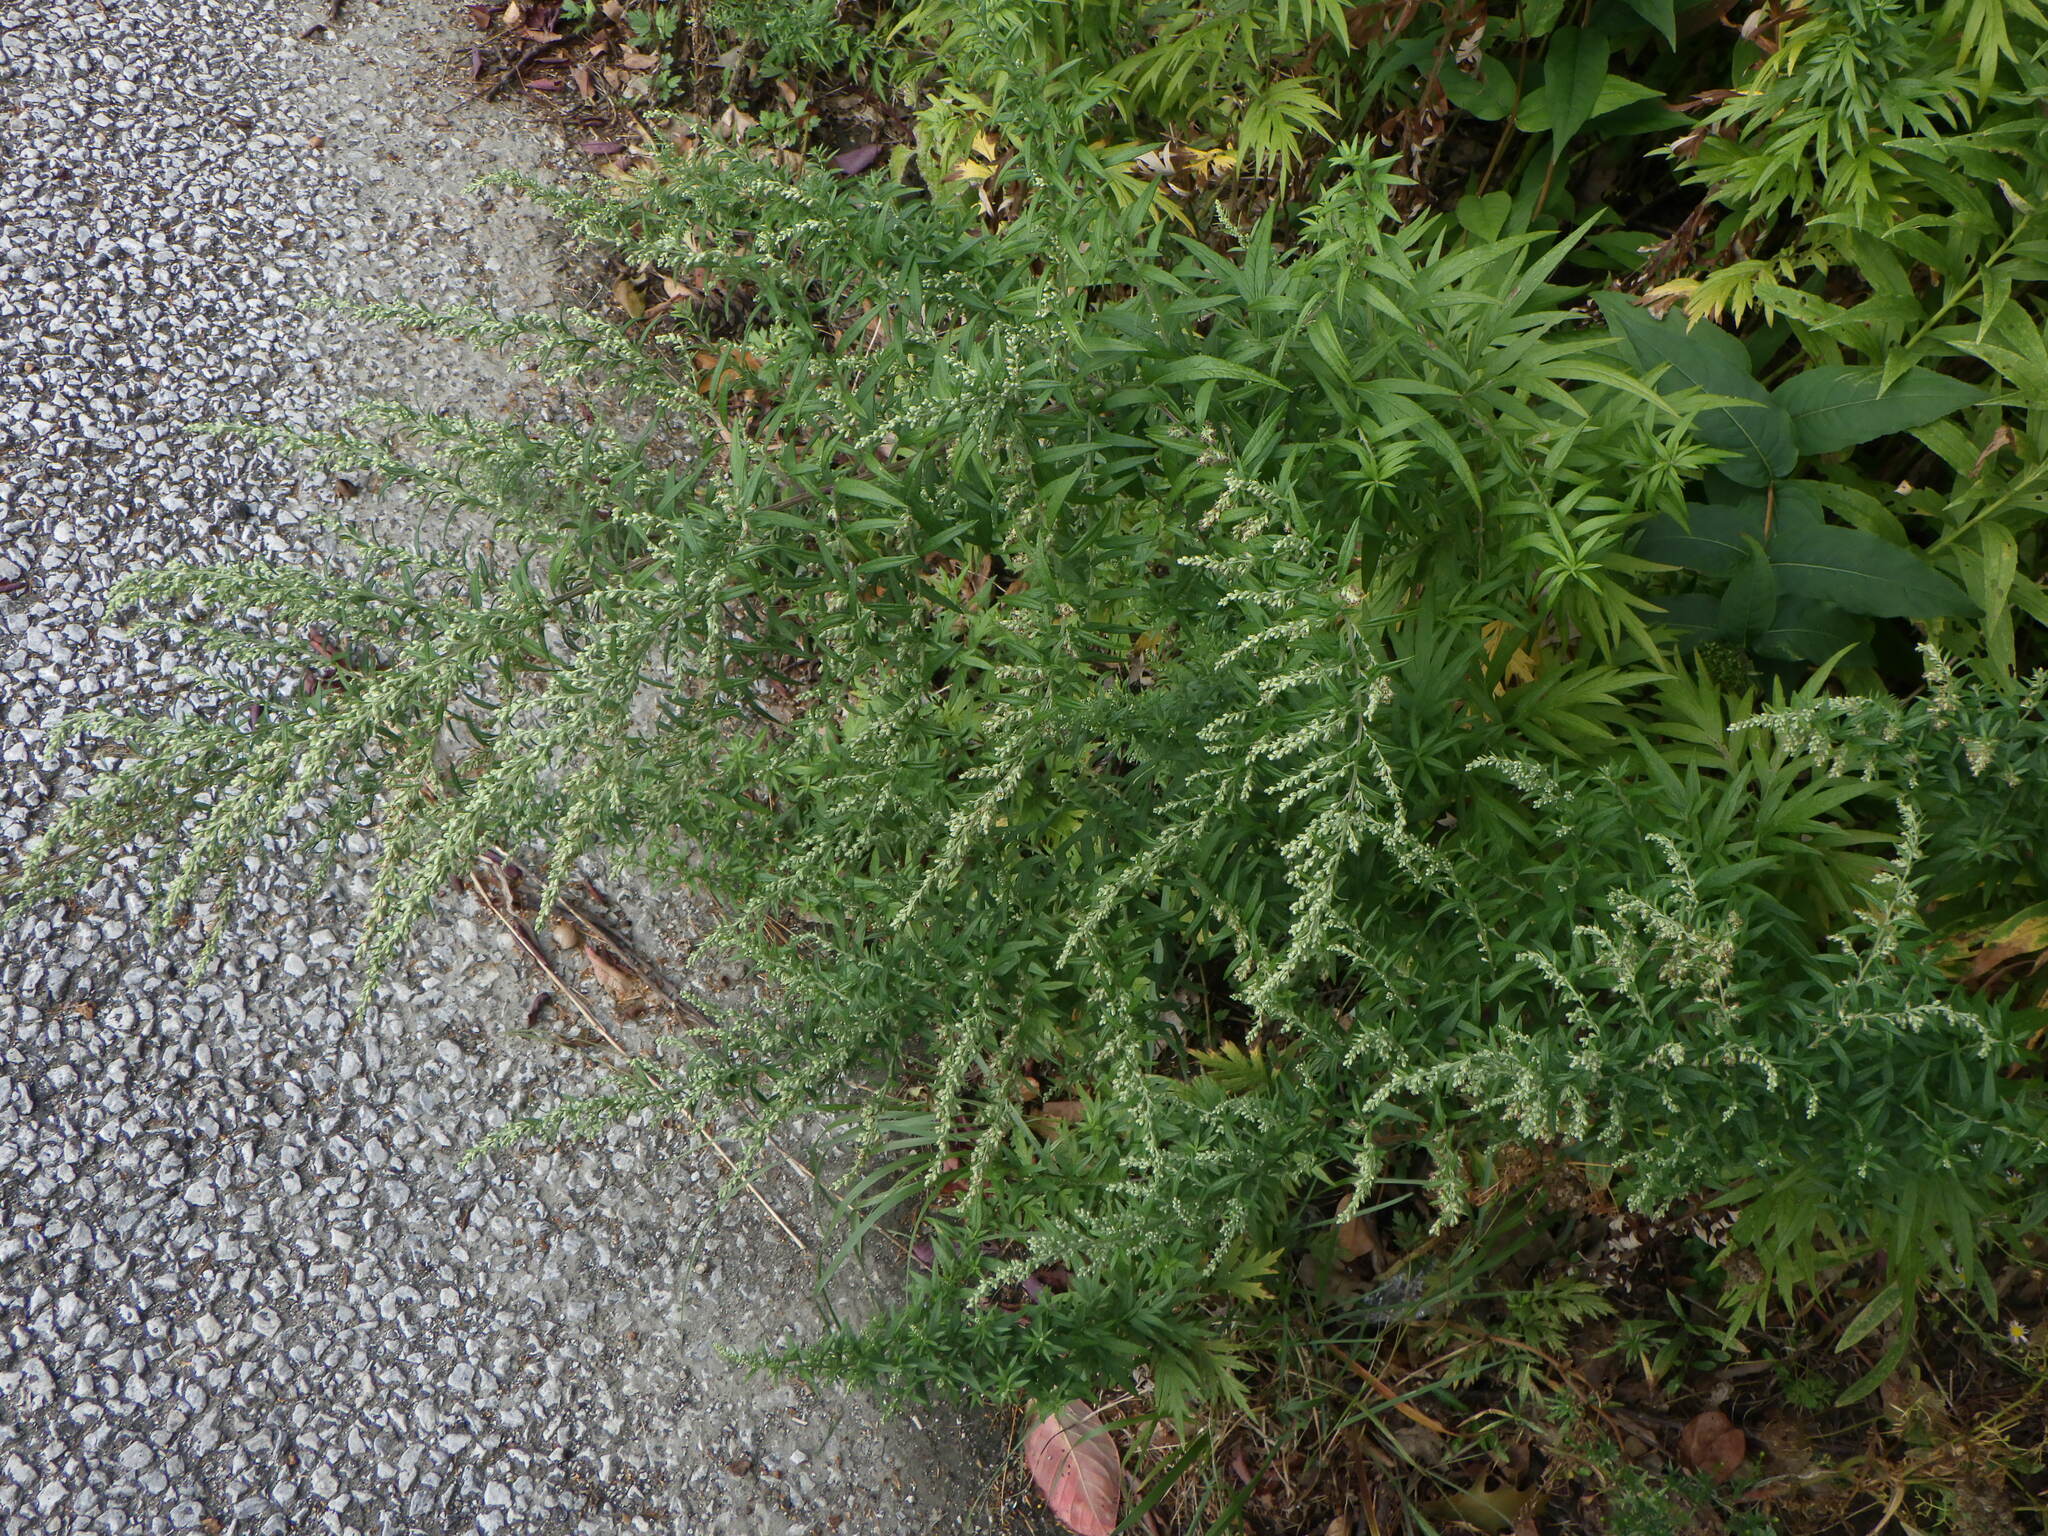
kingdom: Plantae
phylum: Tracheophyta
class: Magnoliopsida
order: Asterales
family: Asteraceae
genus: Artemisia
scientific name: Artemisia vulgaris
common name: Mugwort
